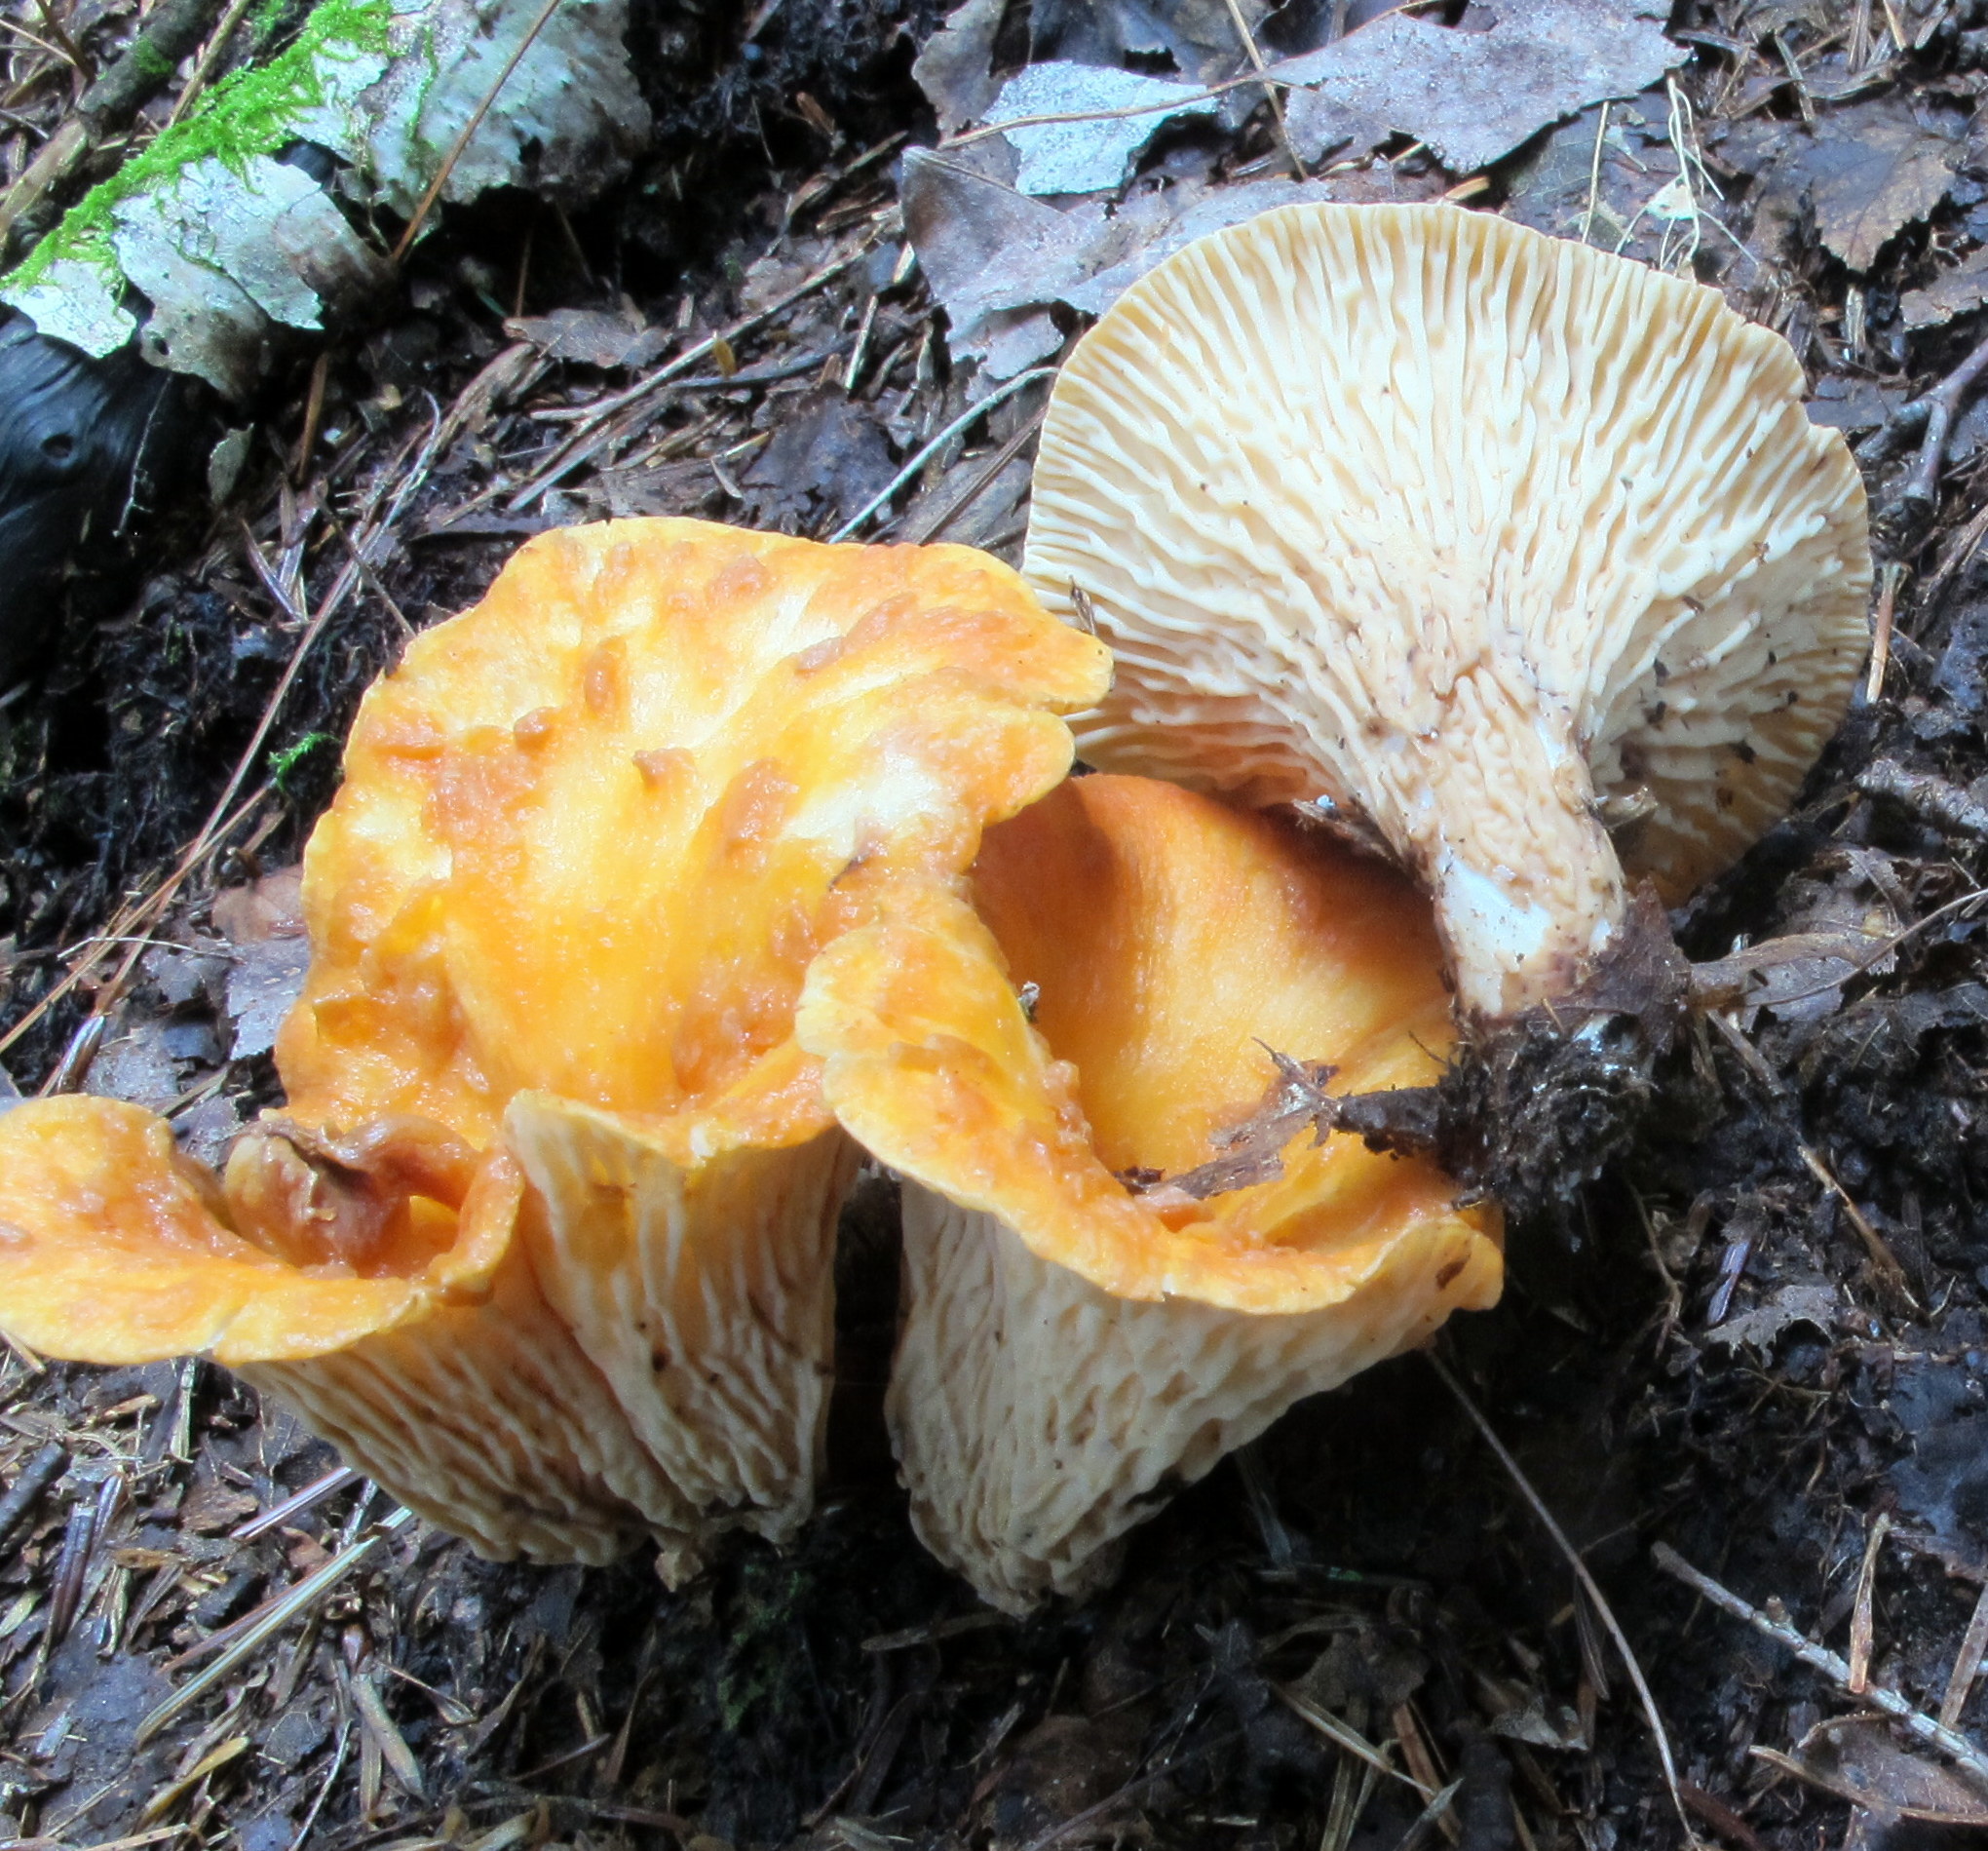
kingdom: Fungi
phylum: Basidiomycota
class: Agaricomycetes
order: Gomphales
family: Gomphaceae
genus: Turbinellus
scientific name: Turbinellus floccosus
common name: Scaly chanterelle
